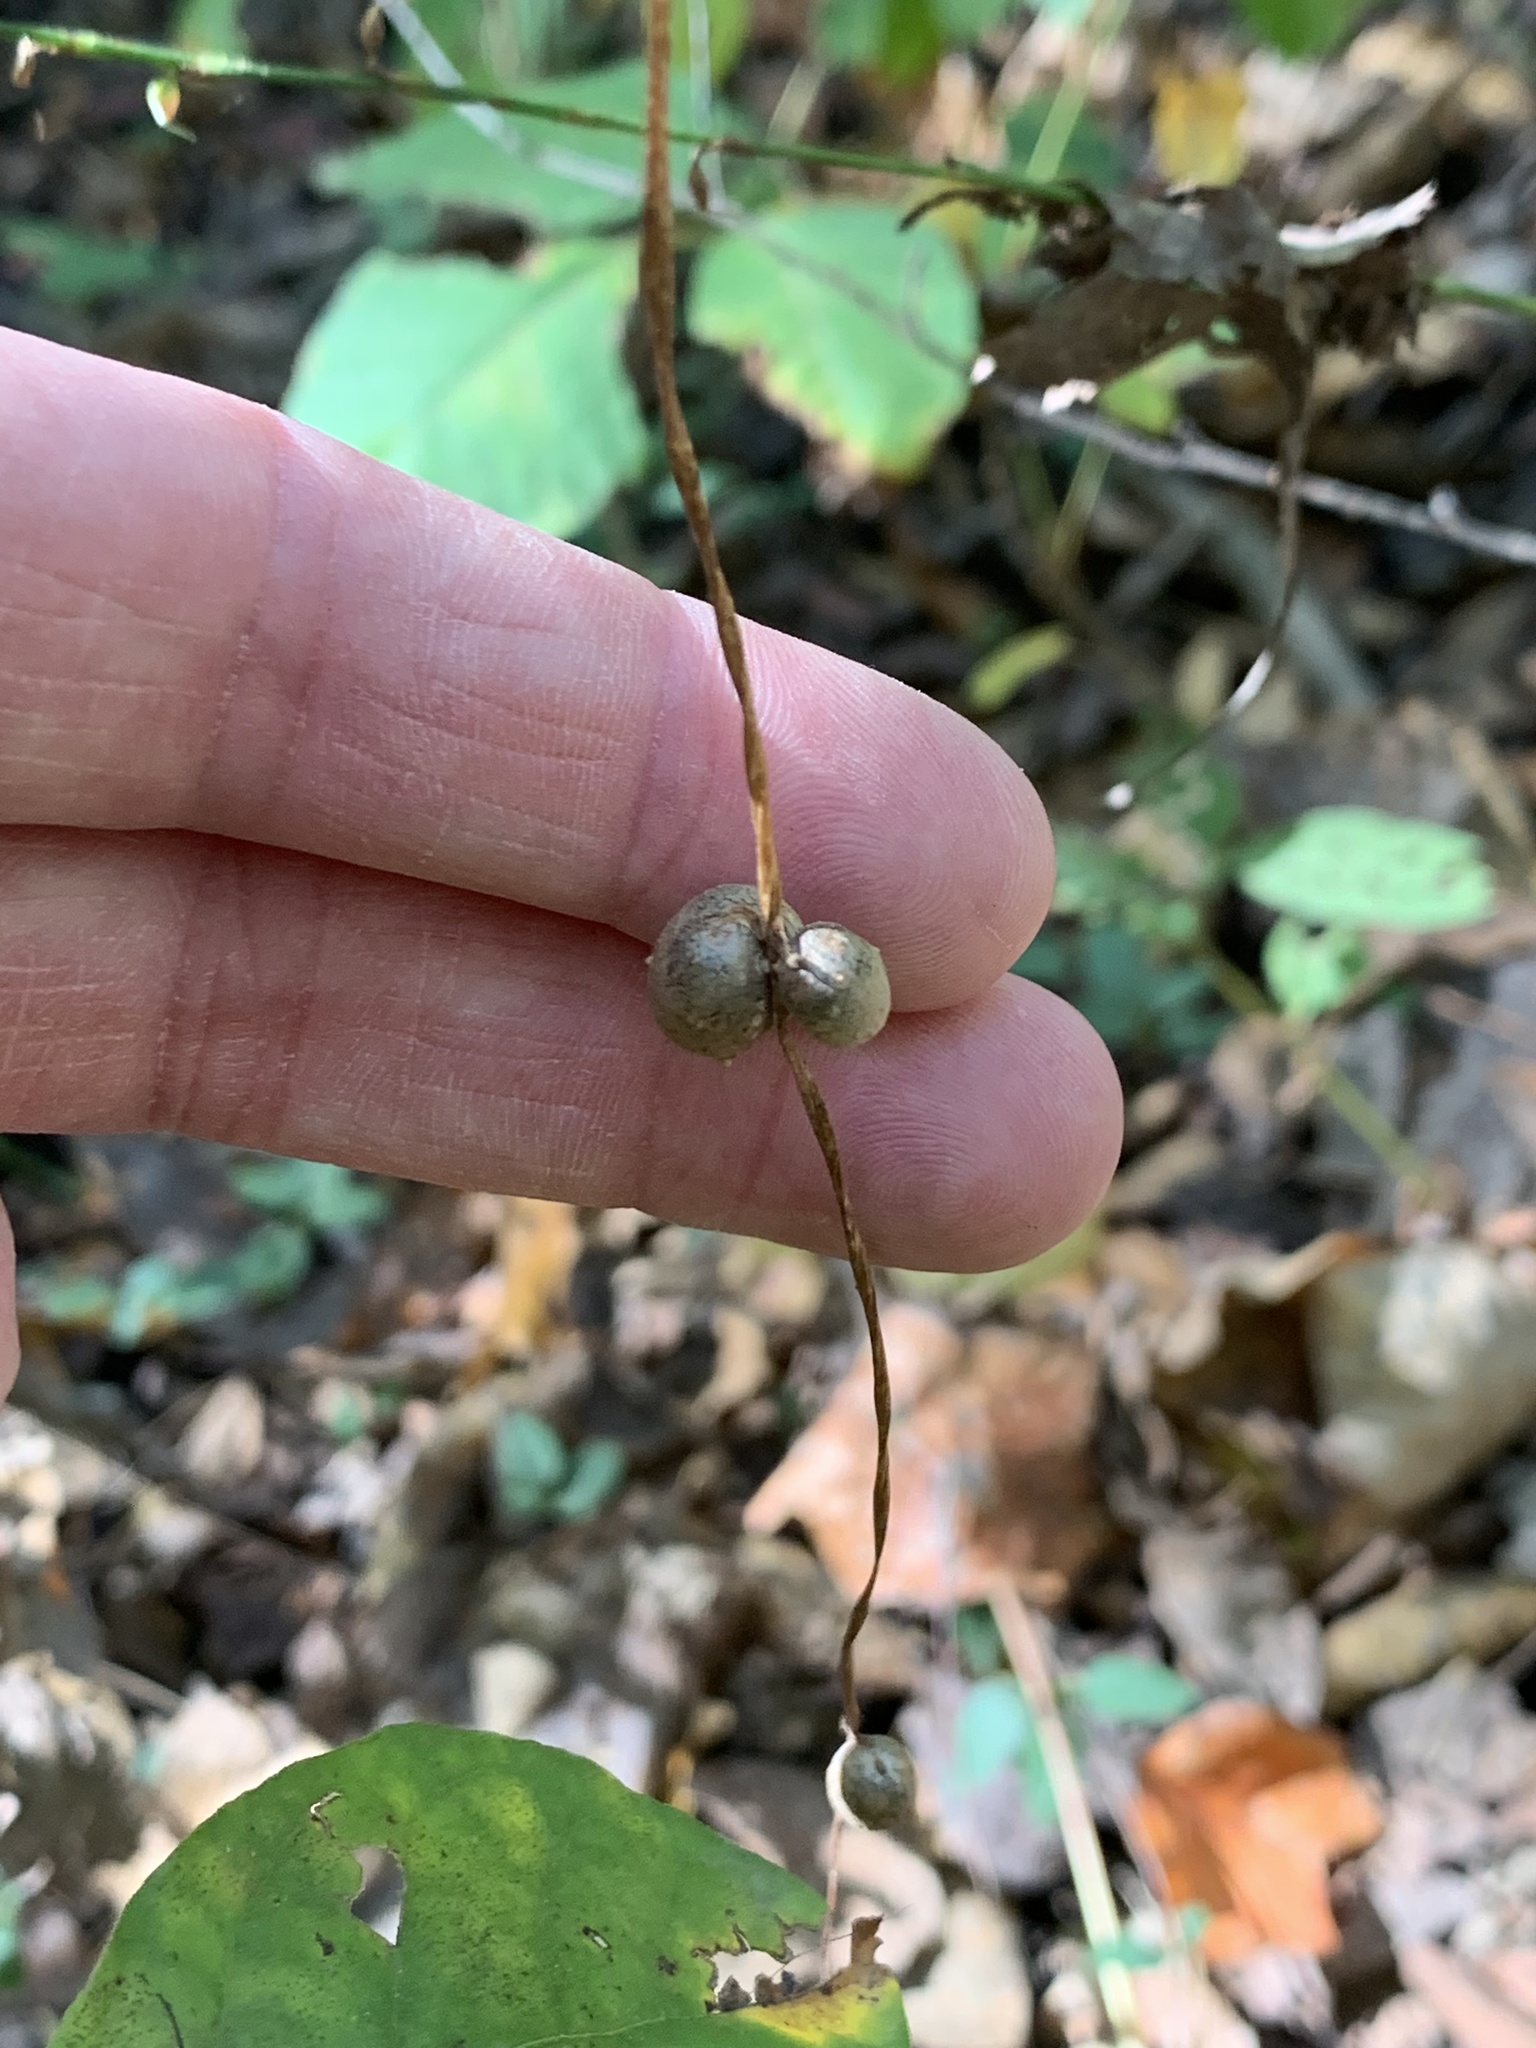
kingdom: Plantae
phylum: Tracheophyta
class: Liliopsida
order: Dioscoreales
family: Dioscoreaceae
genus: Dioscorea
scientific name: Dioscorea polystachya
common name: Chinese yam
